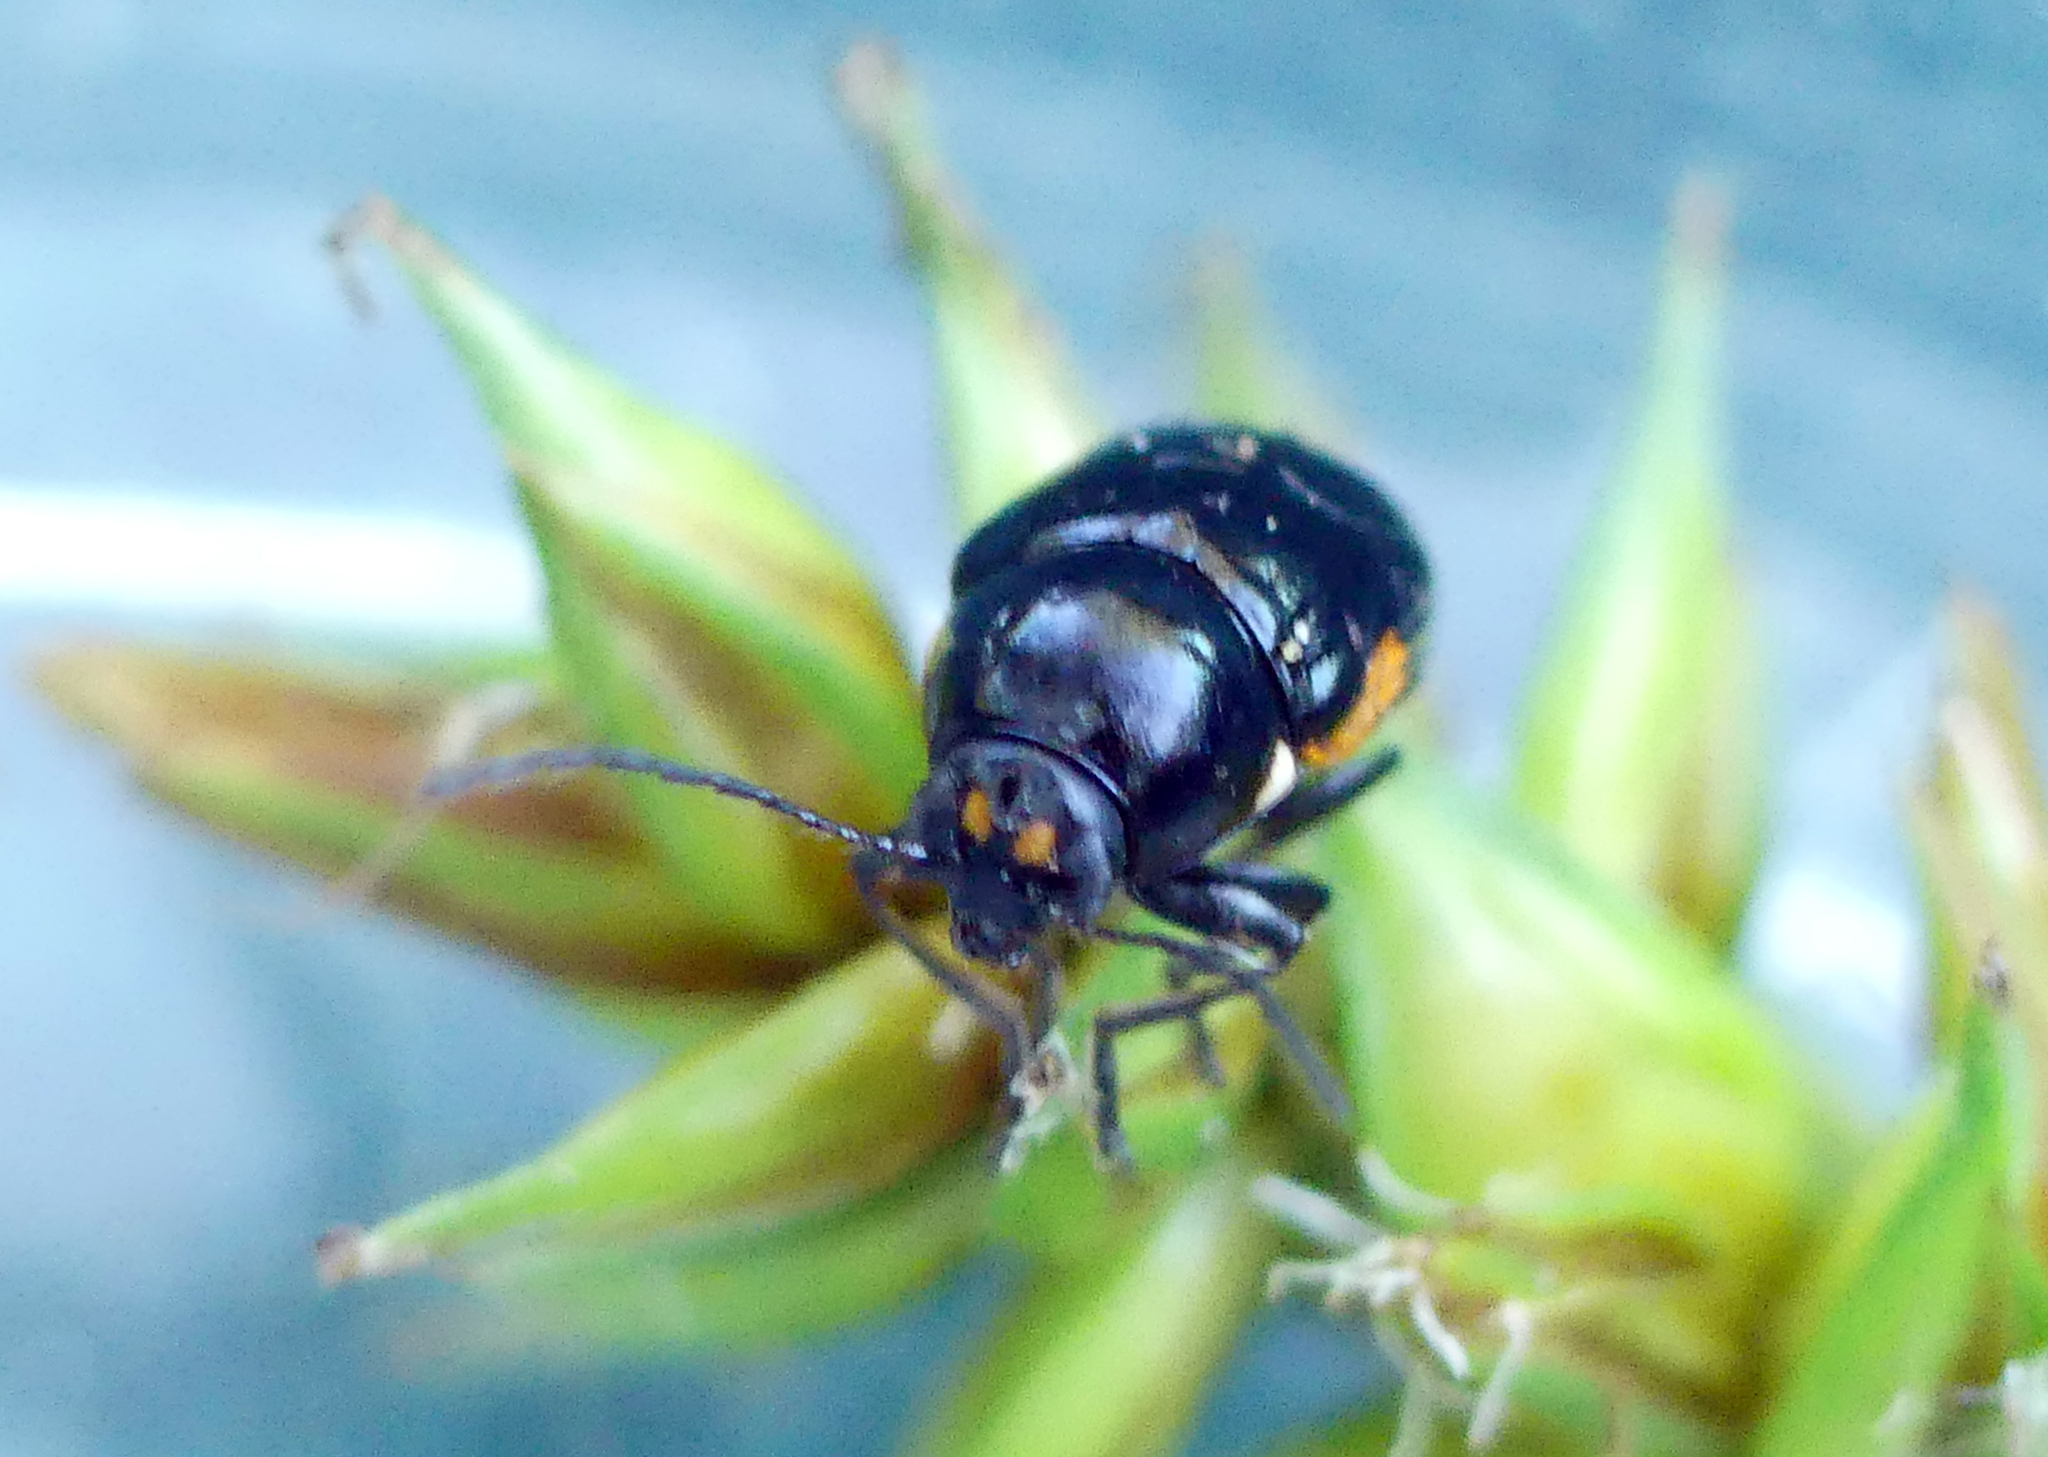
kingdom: Animalia
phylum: Arthropoda
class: Insecta
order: Coleoptera
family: Chrysomelidae
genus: Cryptocephalus
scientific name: Cryptocephalus moraei
